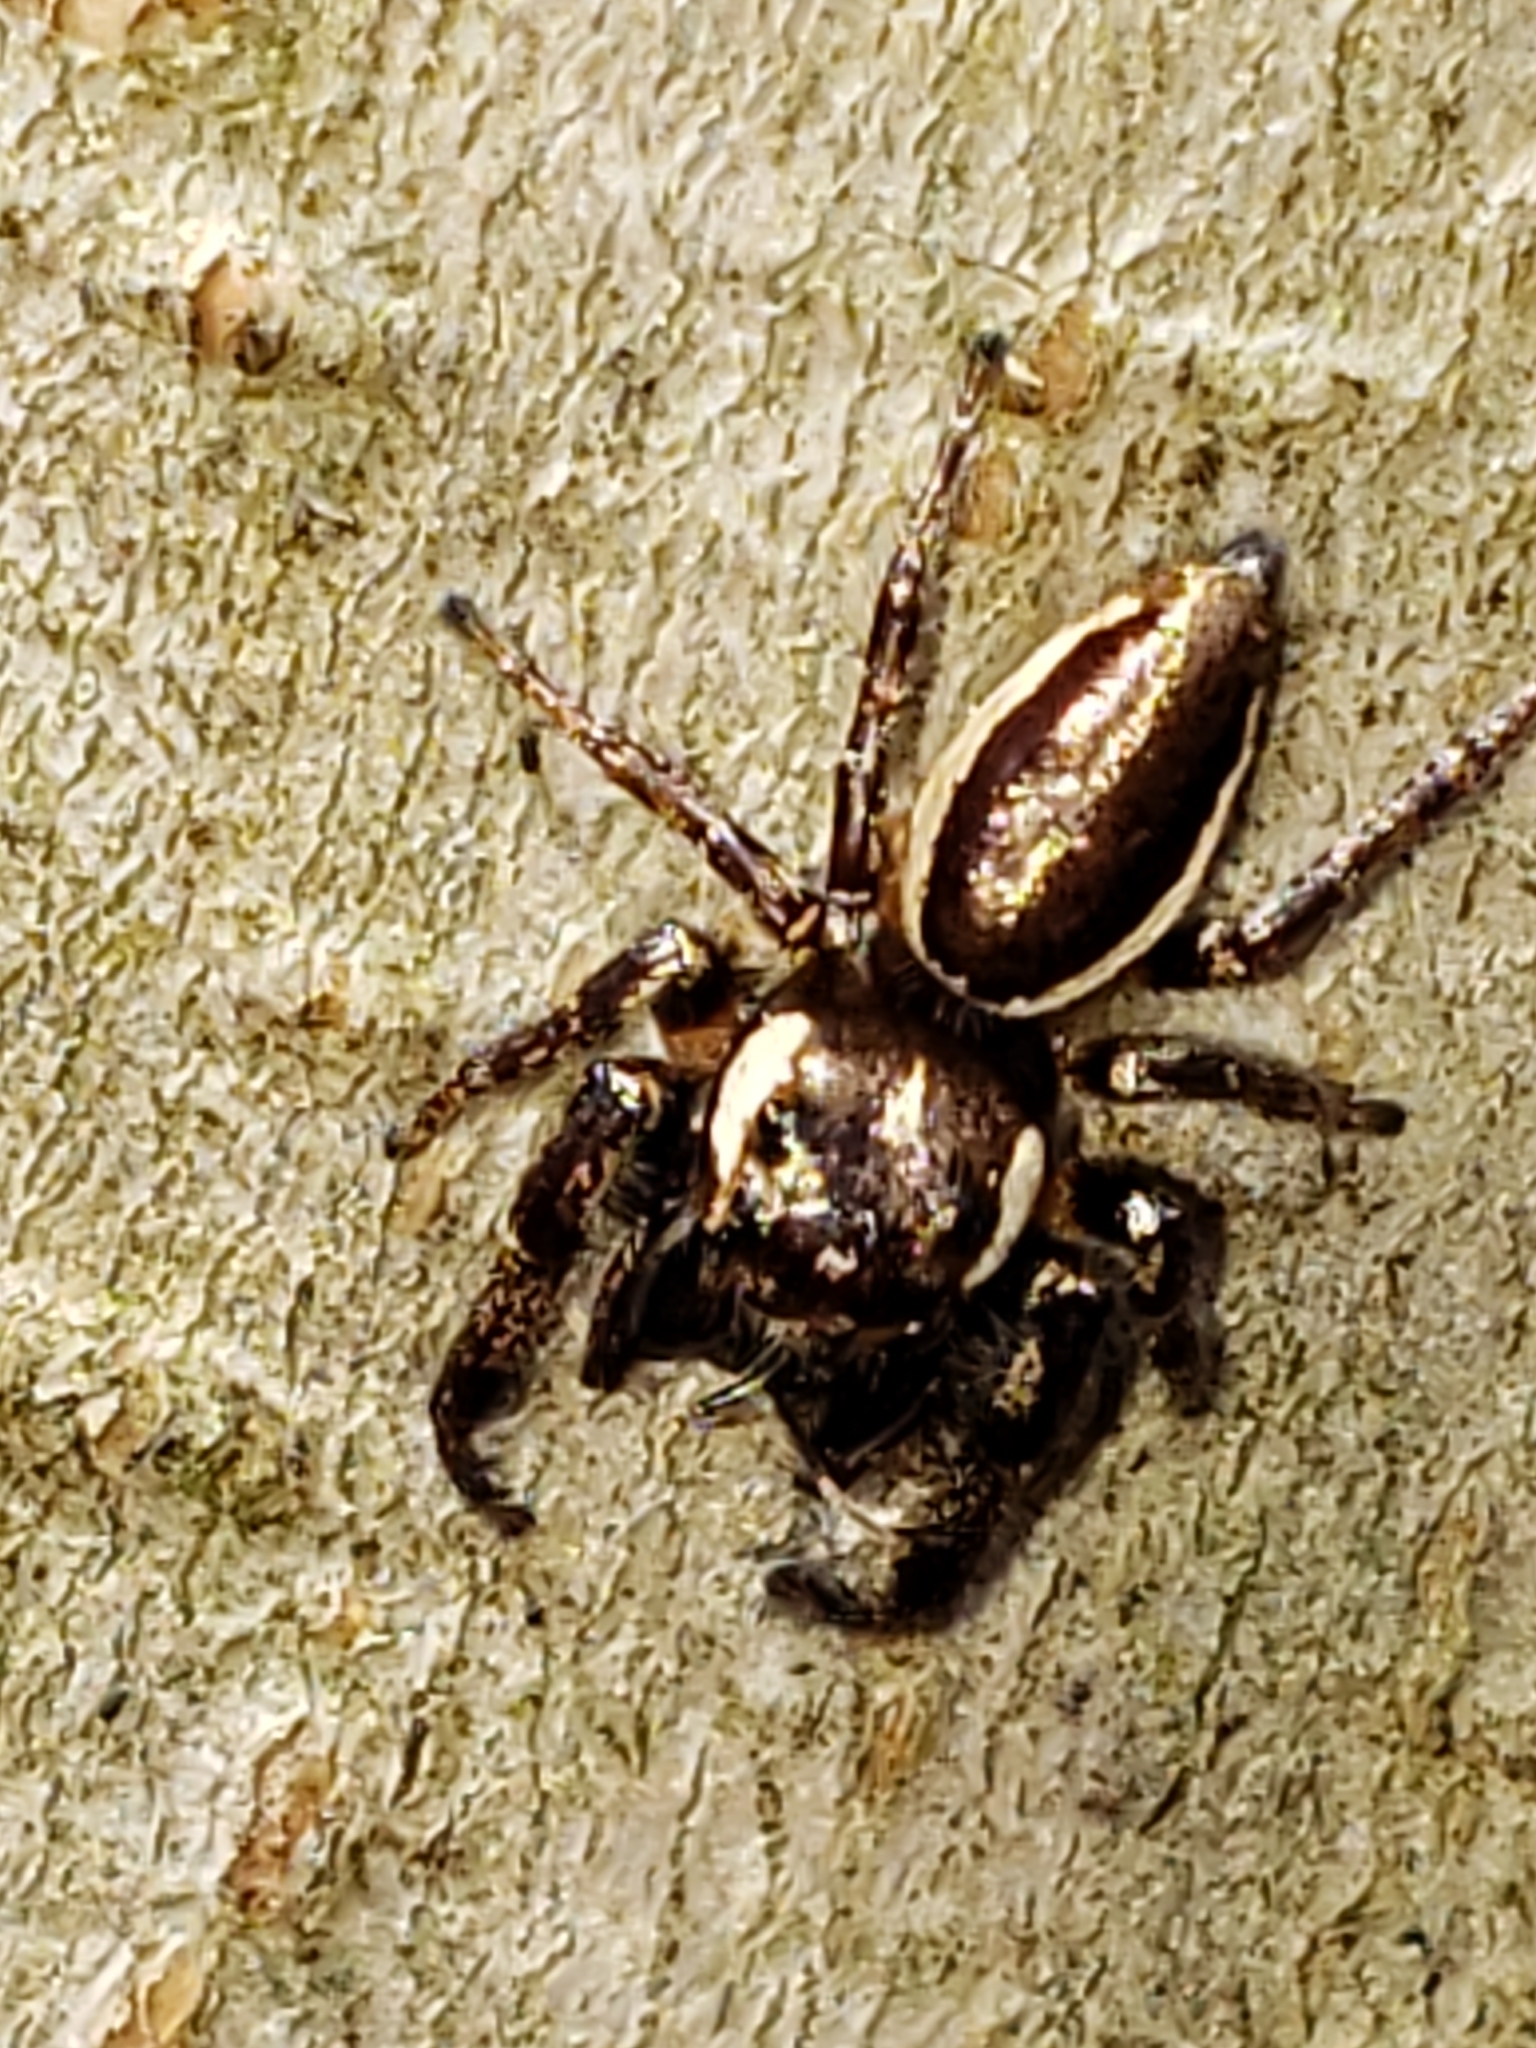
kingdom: Animalia
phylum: Arthropoda
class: Arachnida
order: Araneae
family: Salticidae
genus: Eris
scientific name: Eris militaris
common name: Bronze jumper
